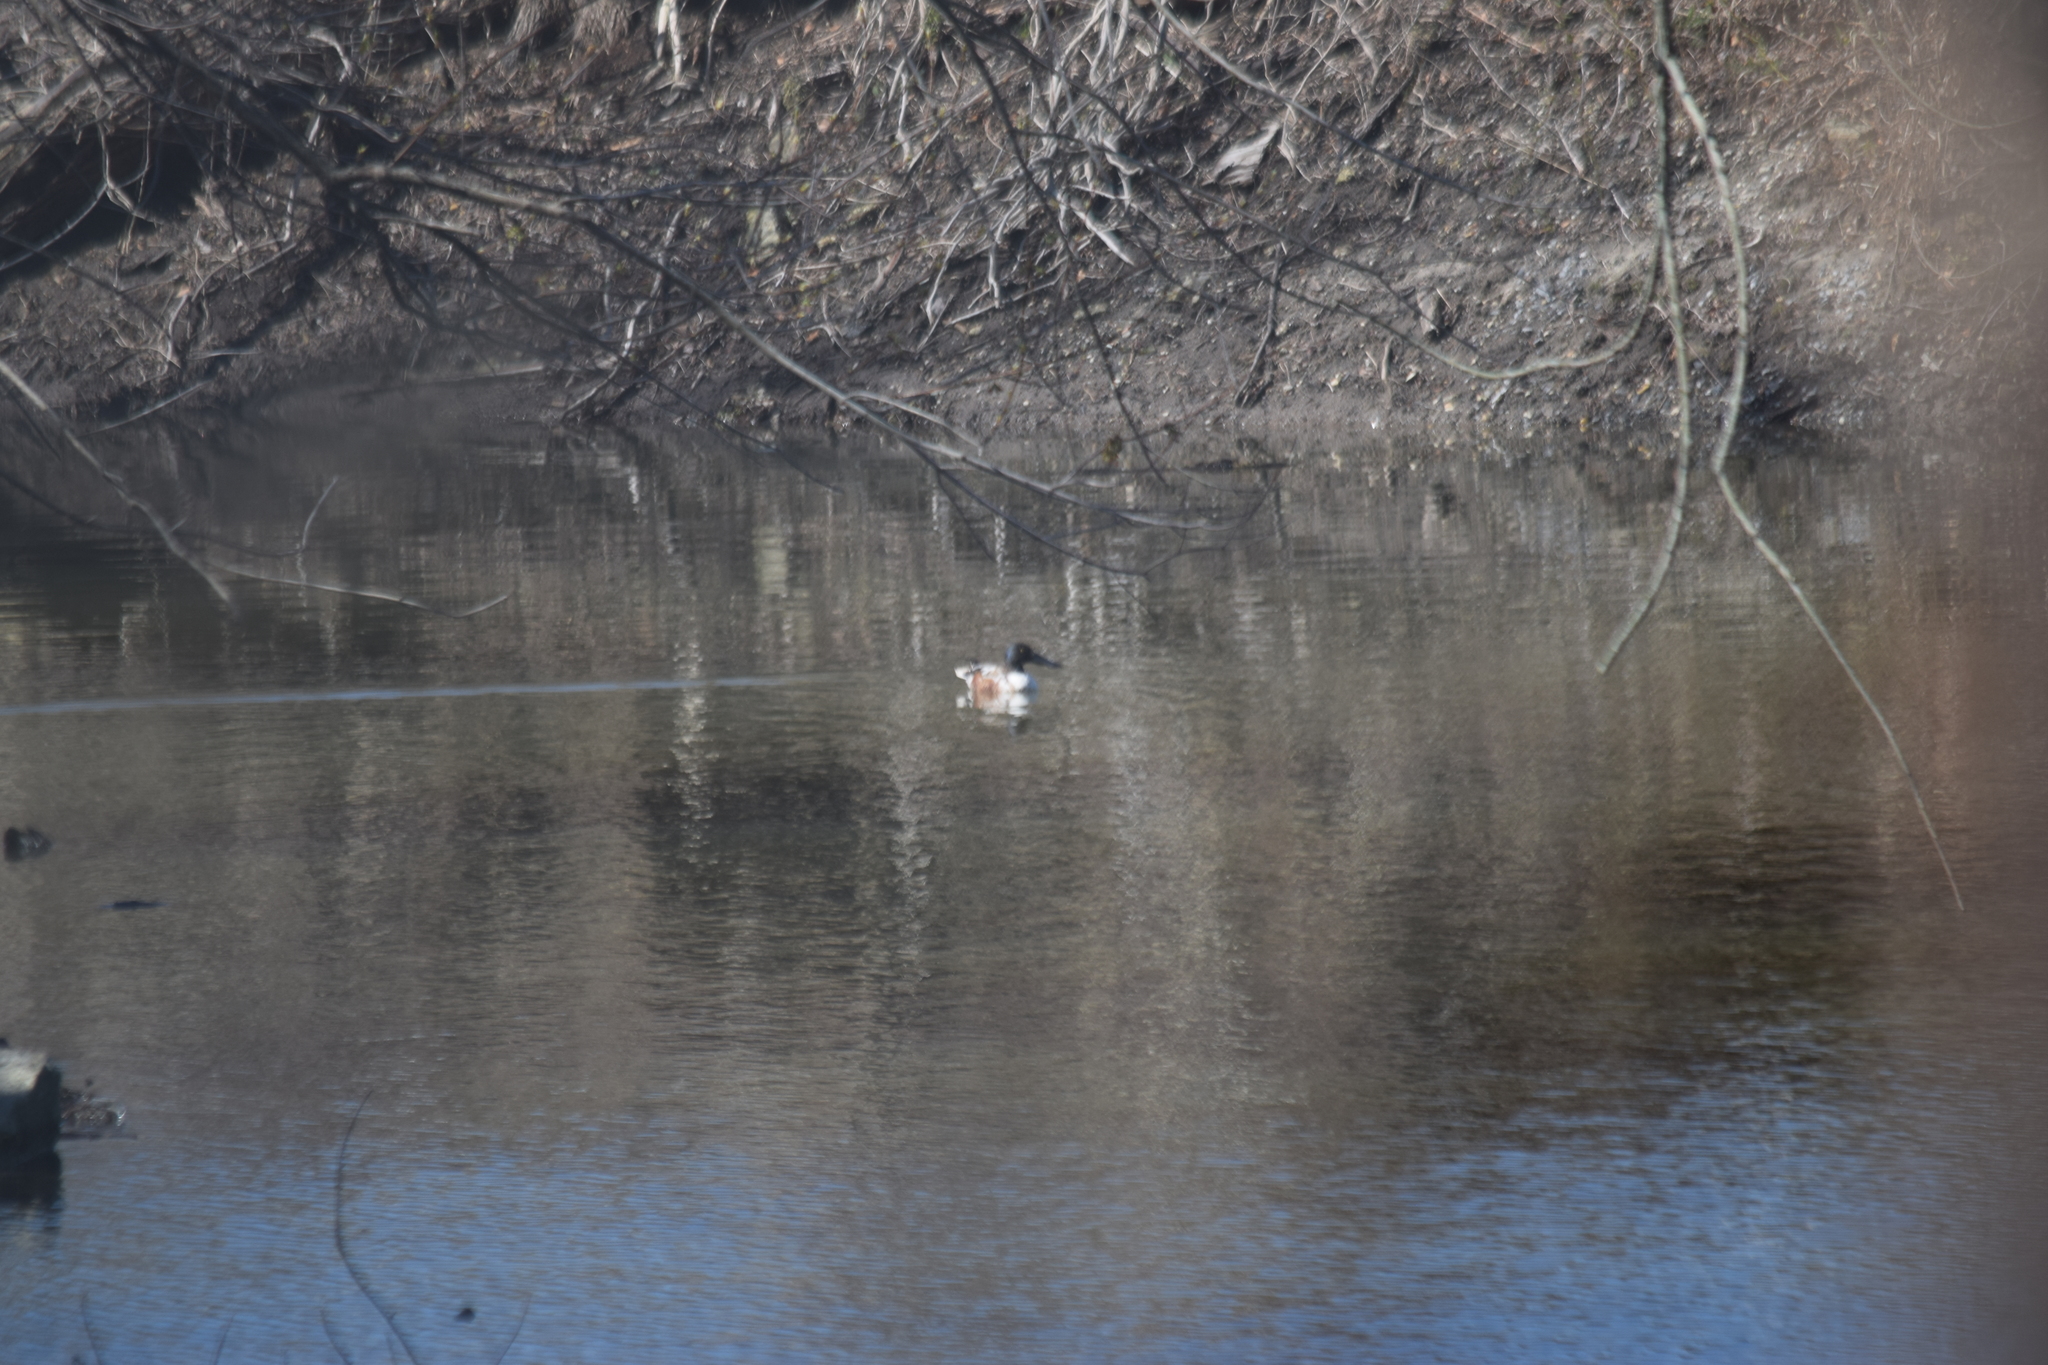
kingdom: Animalia
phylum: Chordata
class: Aves
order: Anseriformes
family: Anatidae
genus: Spatula
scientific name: Spatula clypeata
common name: Northern shoveler
